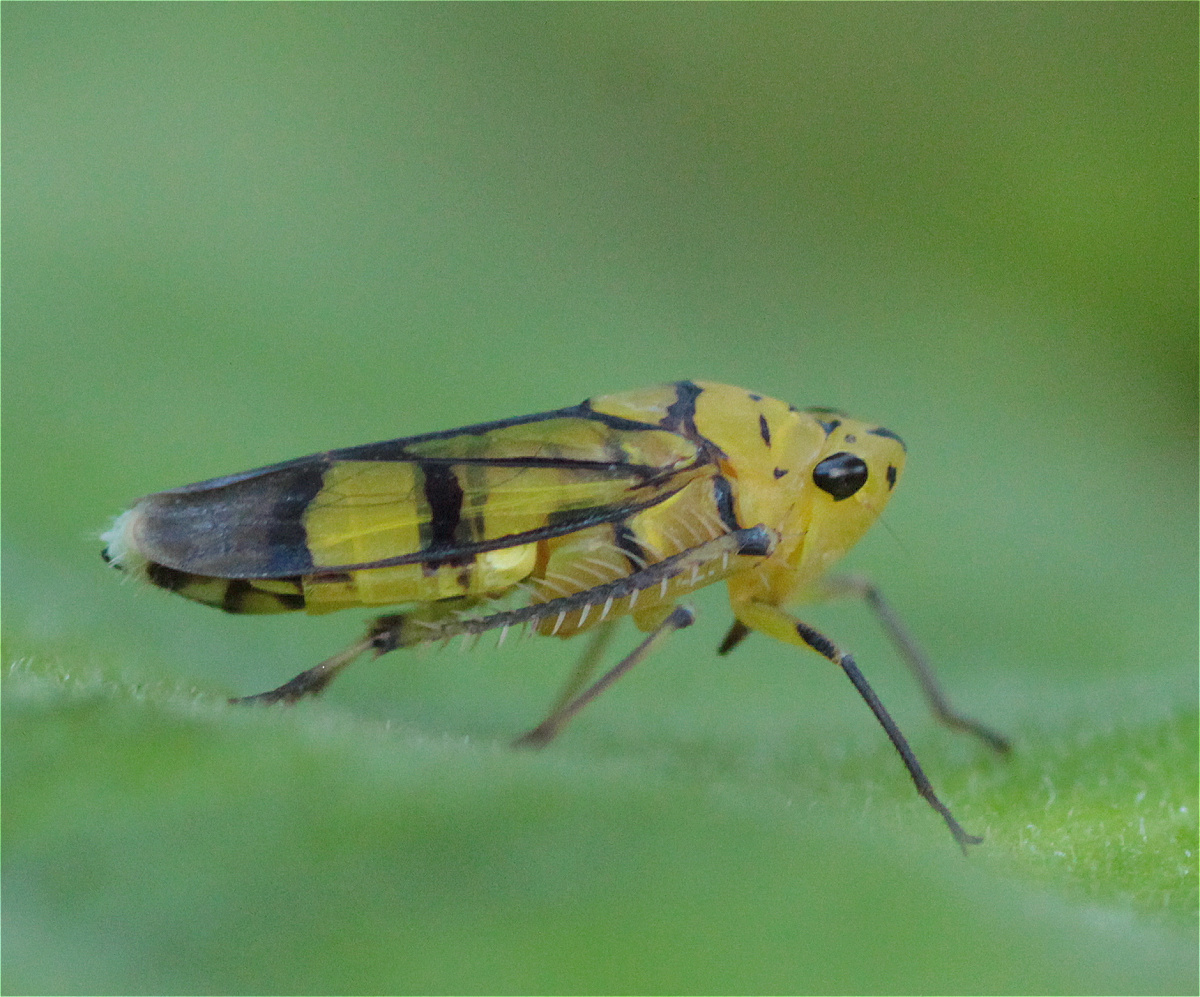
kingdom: Animalia
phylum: Arthropoda
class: Insecta
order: Hemiptera
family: Cicadellidae
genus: Parathona
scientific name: Parathona cayennensis
